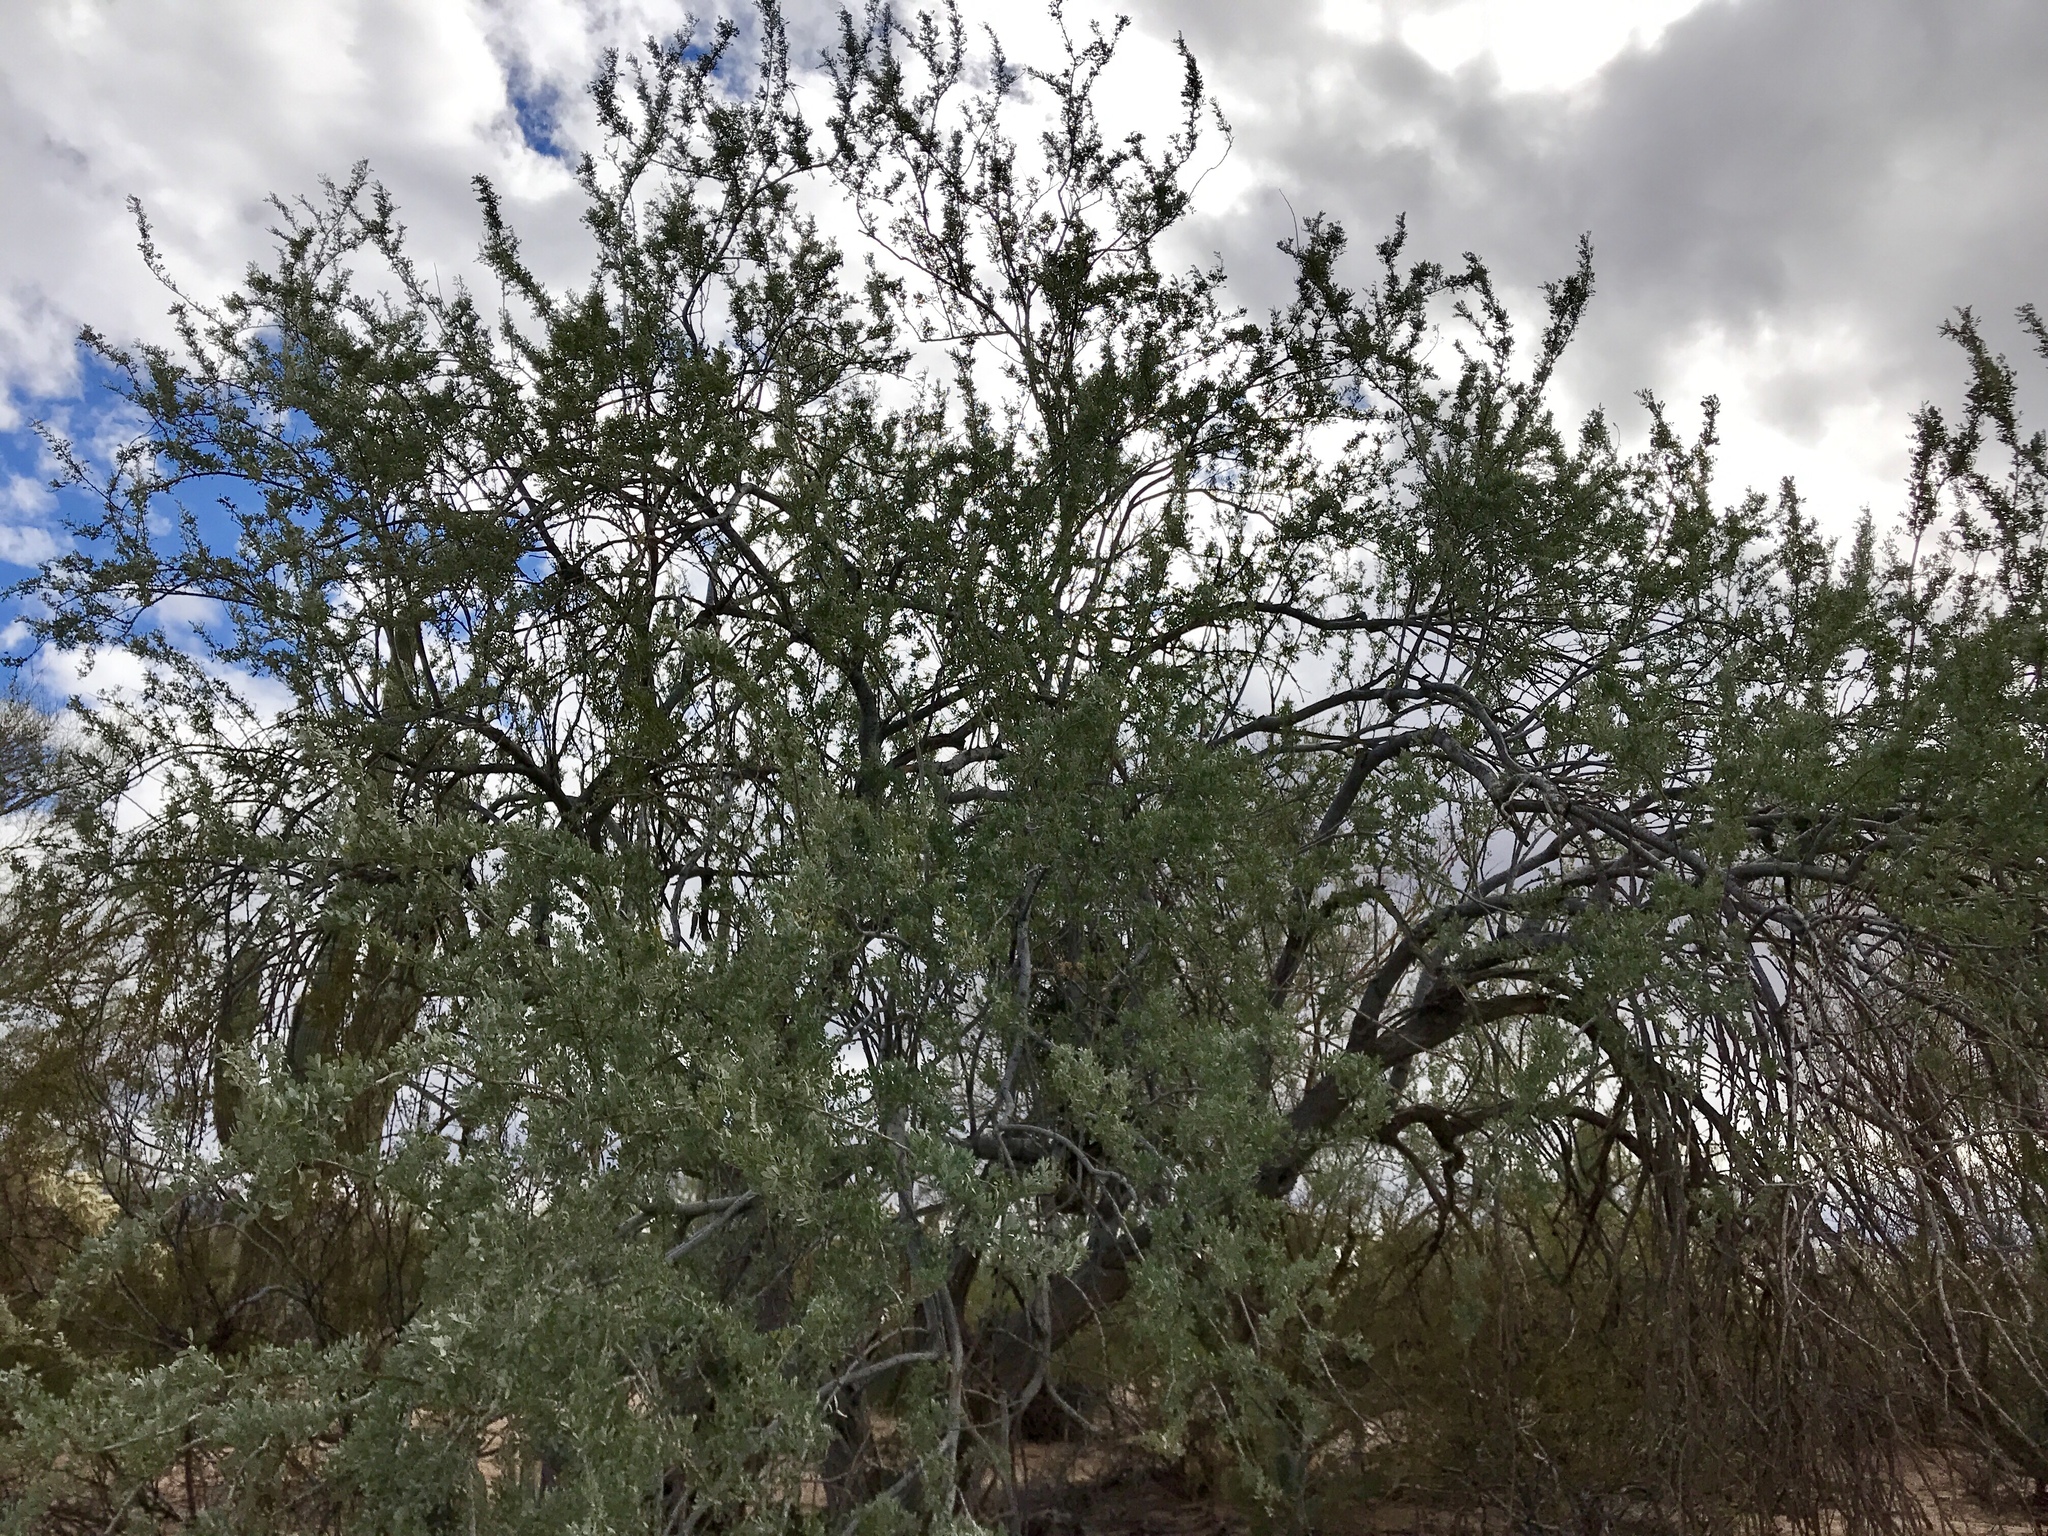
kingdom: Plantae
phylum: Tracheophyta
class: Magnoliopsida
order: Fabales
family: Fabaceae
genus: Olneya
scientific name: Olneya tesota
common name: Desert ironwood
